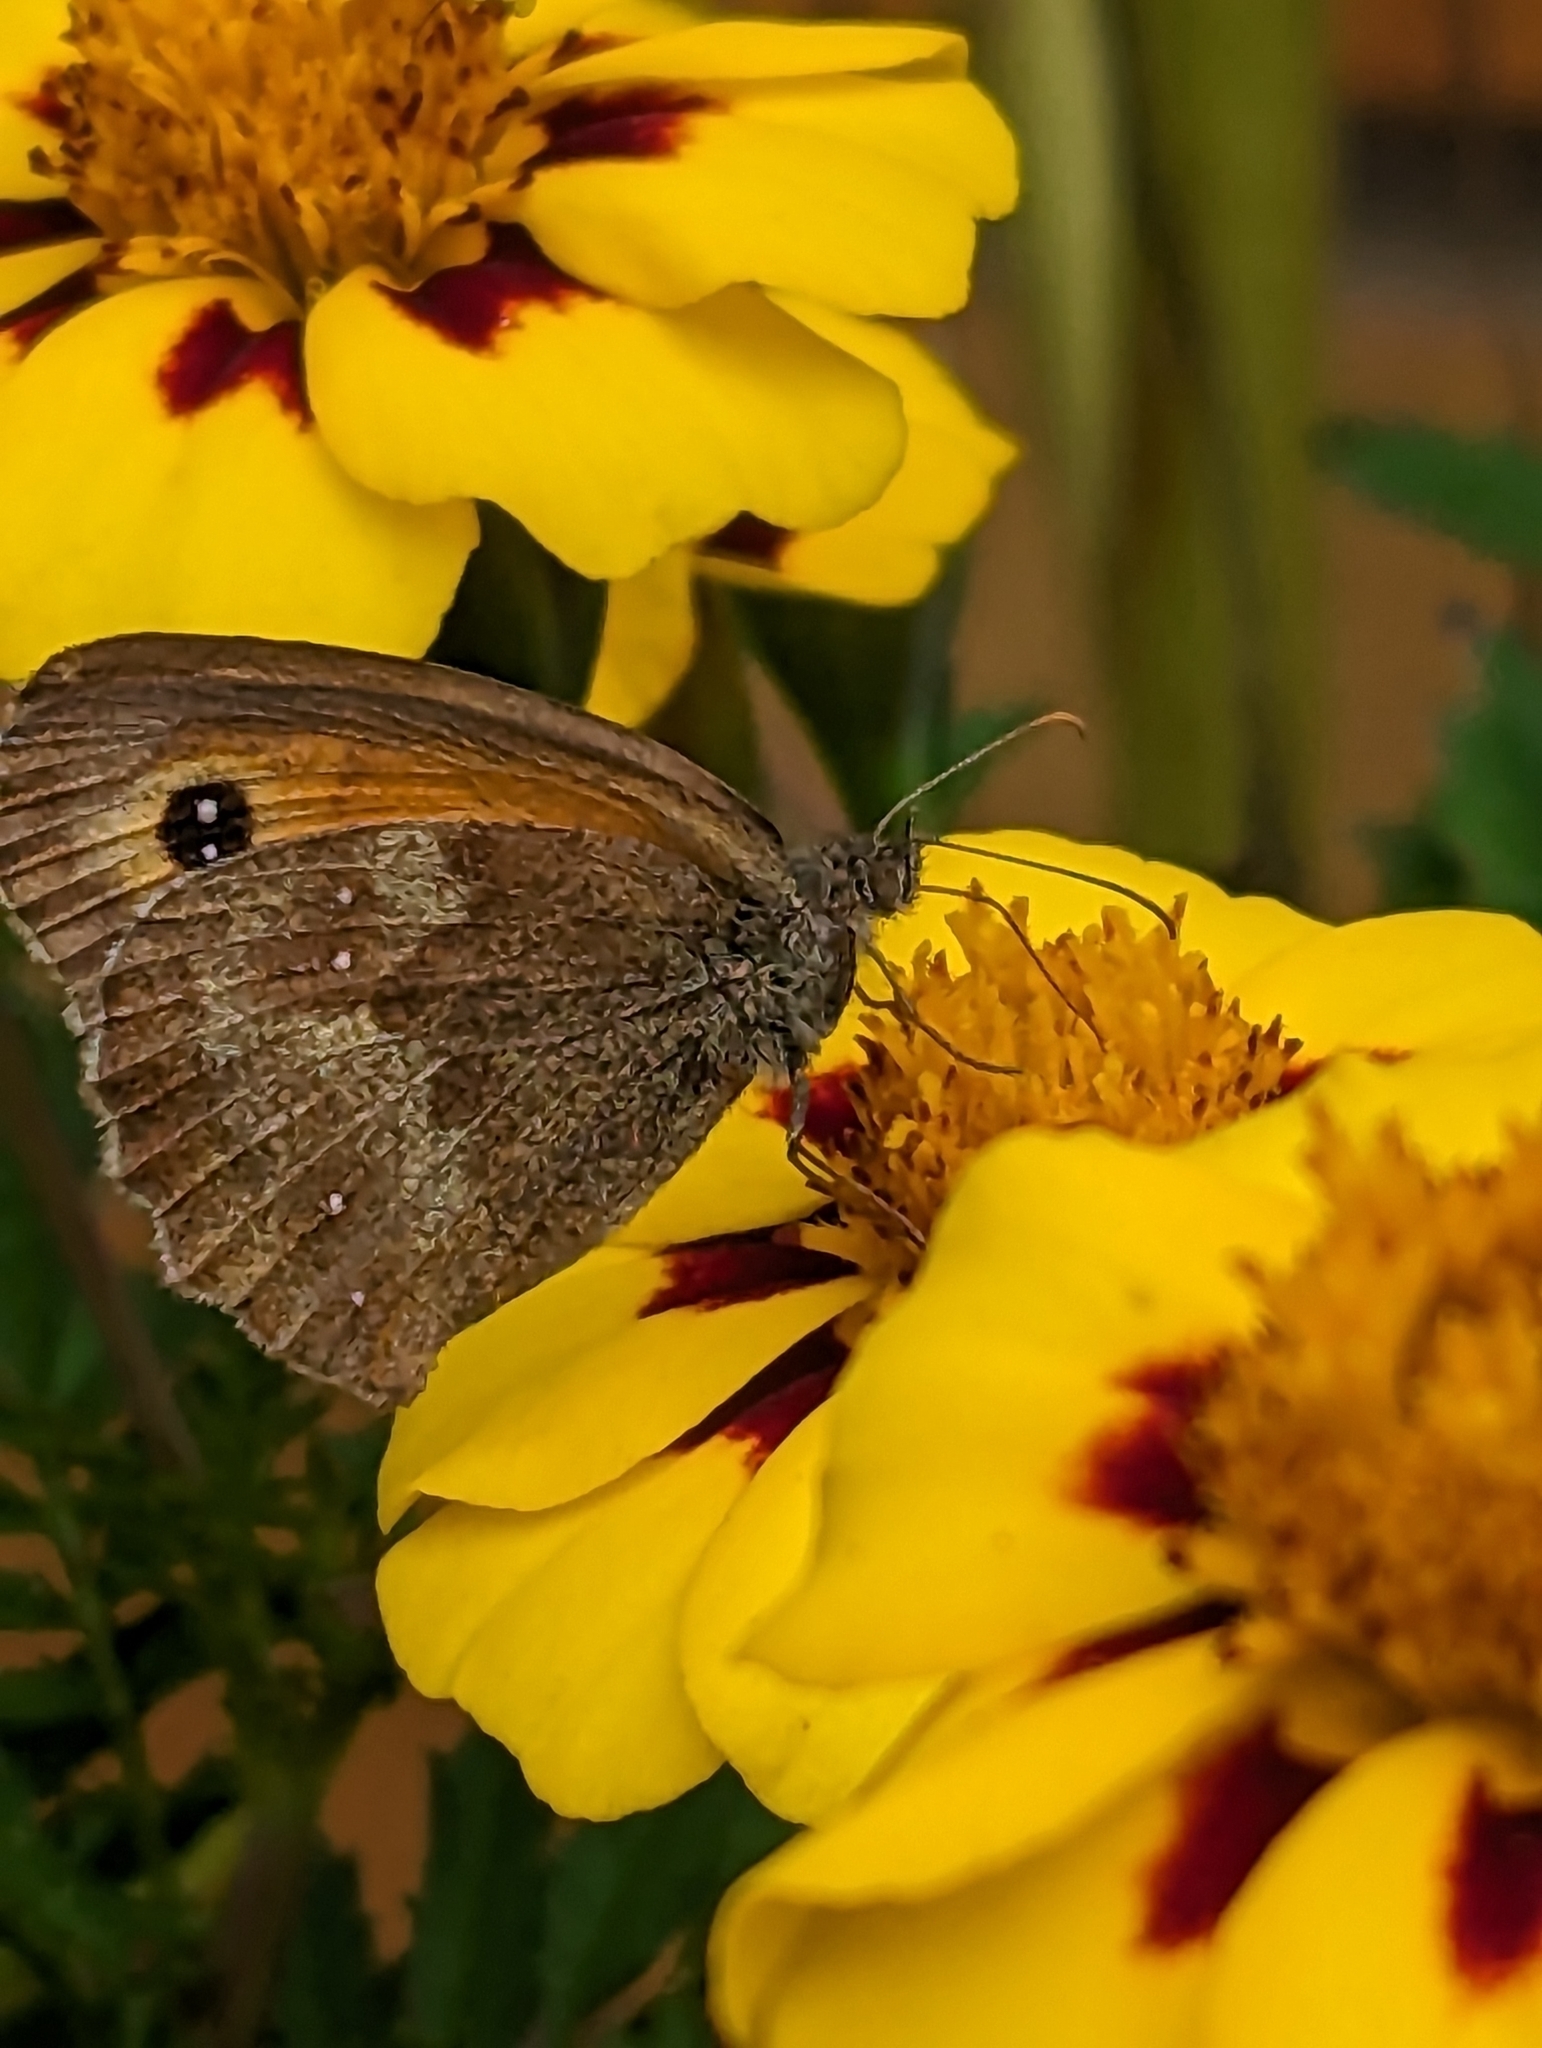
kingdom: Animalia
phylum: Arthropoda
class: Insecta
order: Lepidoptera
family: Nymphalidae
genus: Pyronia
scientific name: Pyronia tithonus
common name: Gatekeeper
